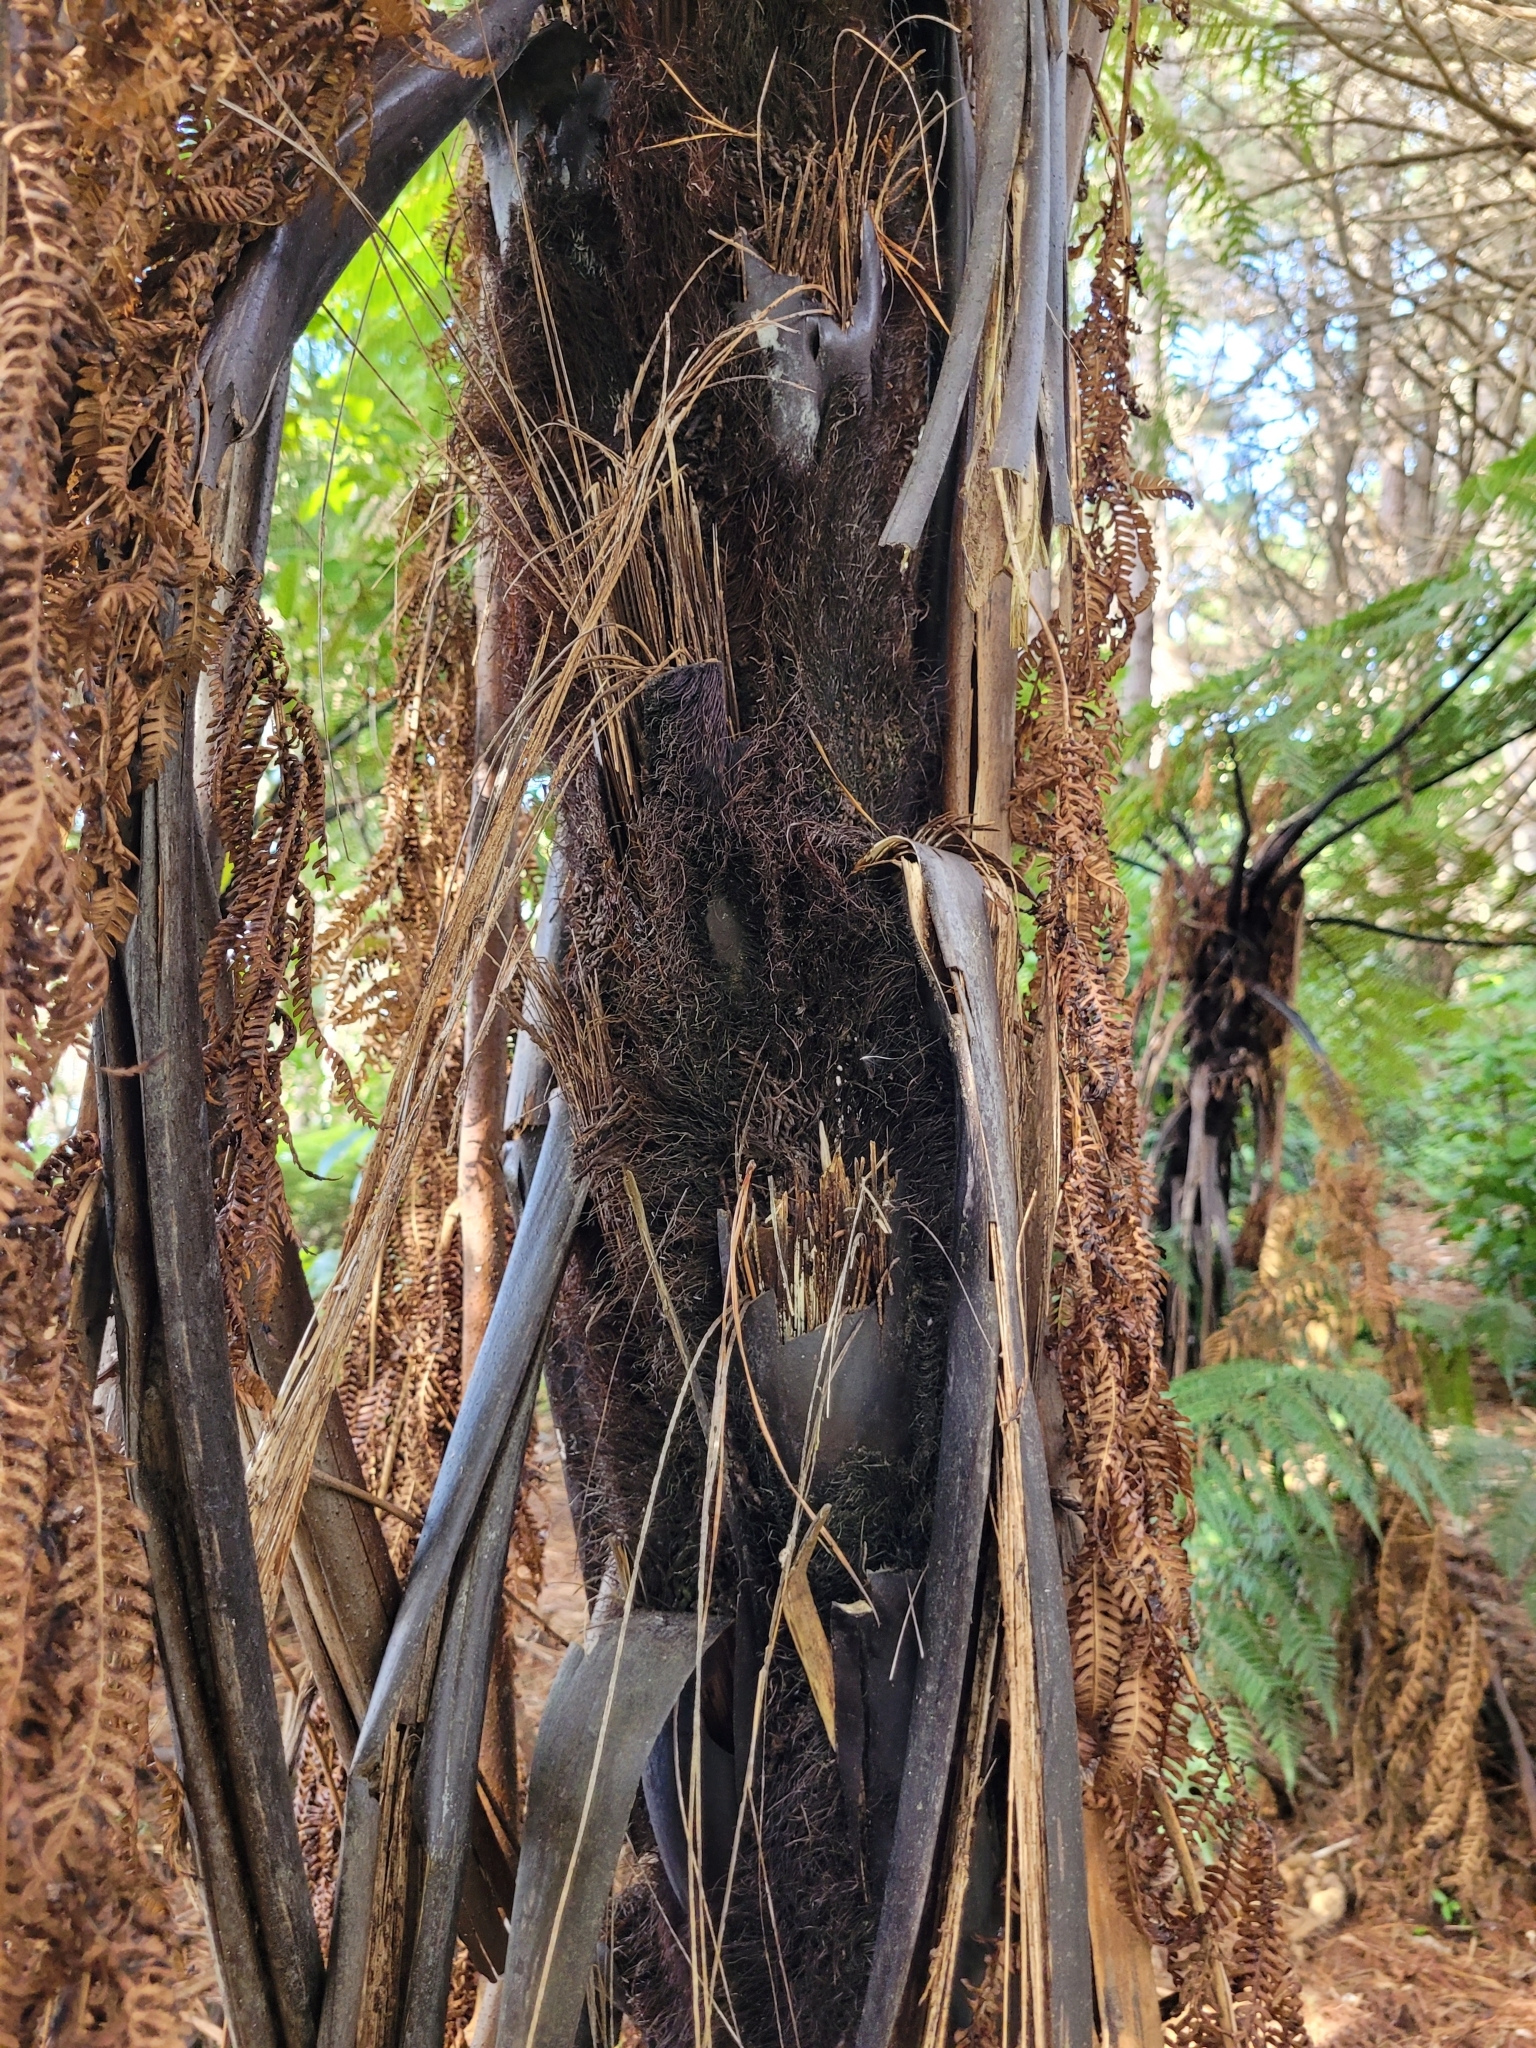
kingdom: Plantae
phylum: Tracheophyta
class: Polypodiopsida
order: Cyatheales
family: Cyatheaceae
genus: Sphaeropteris
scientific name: Sphaeropteris medullaris
